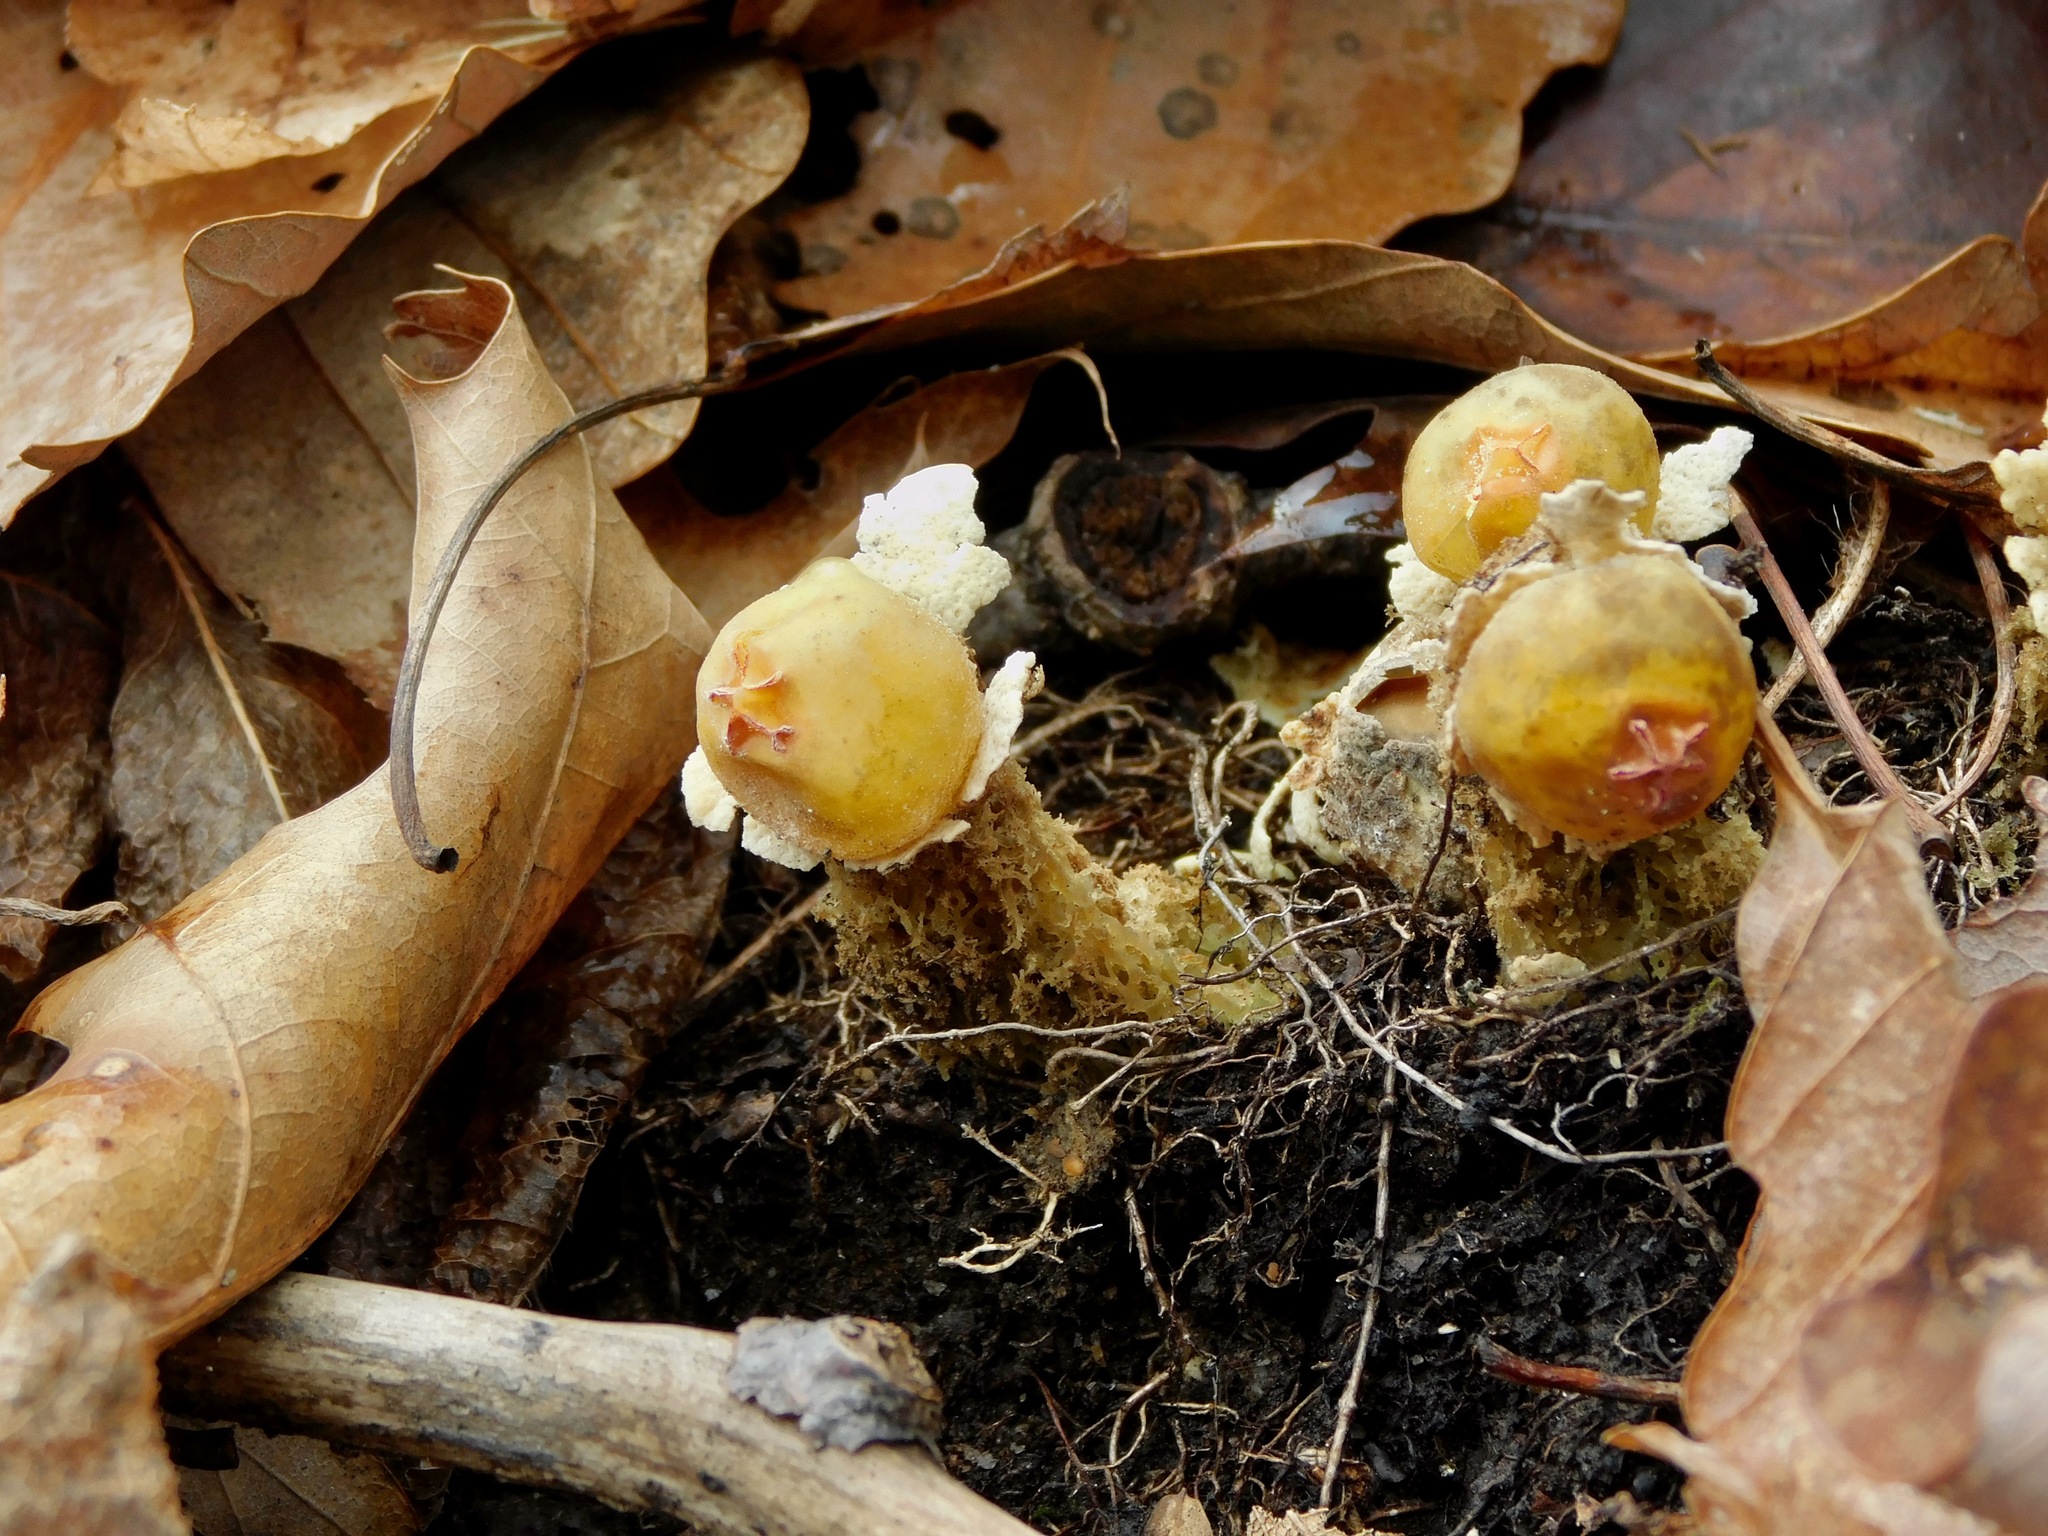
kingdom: Fungi
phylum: Basidiomycota
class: Agaricomycetes
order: Boletales
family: Calostomataceae
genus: Calostoma
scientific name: Calostoma lutescens
